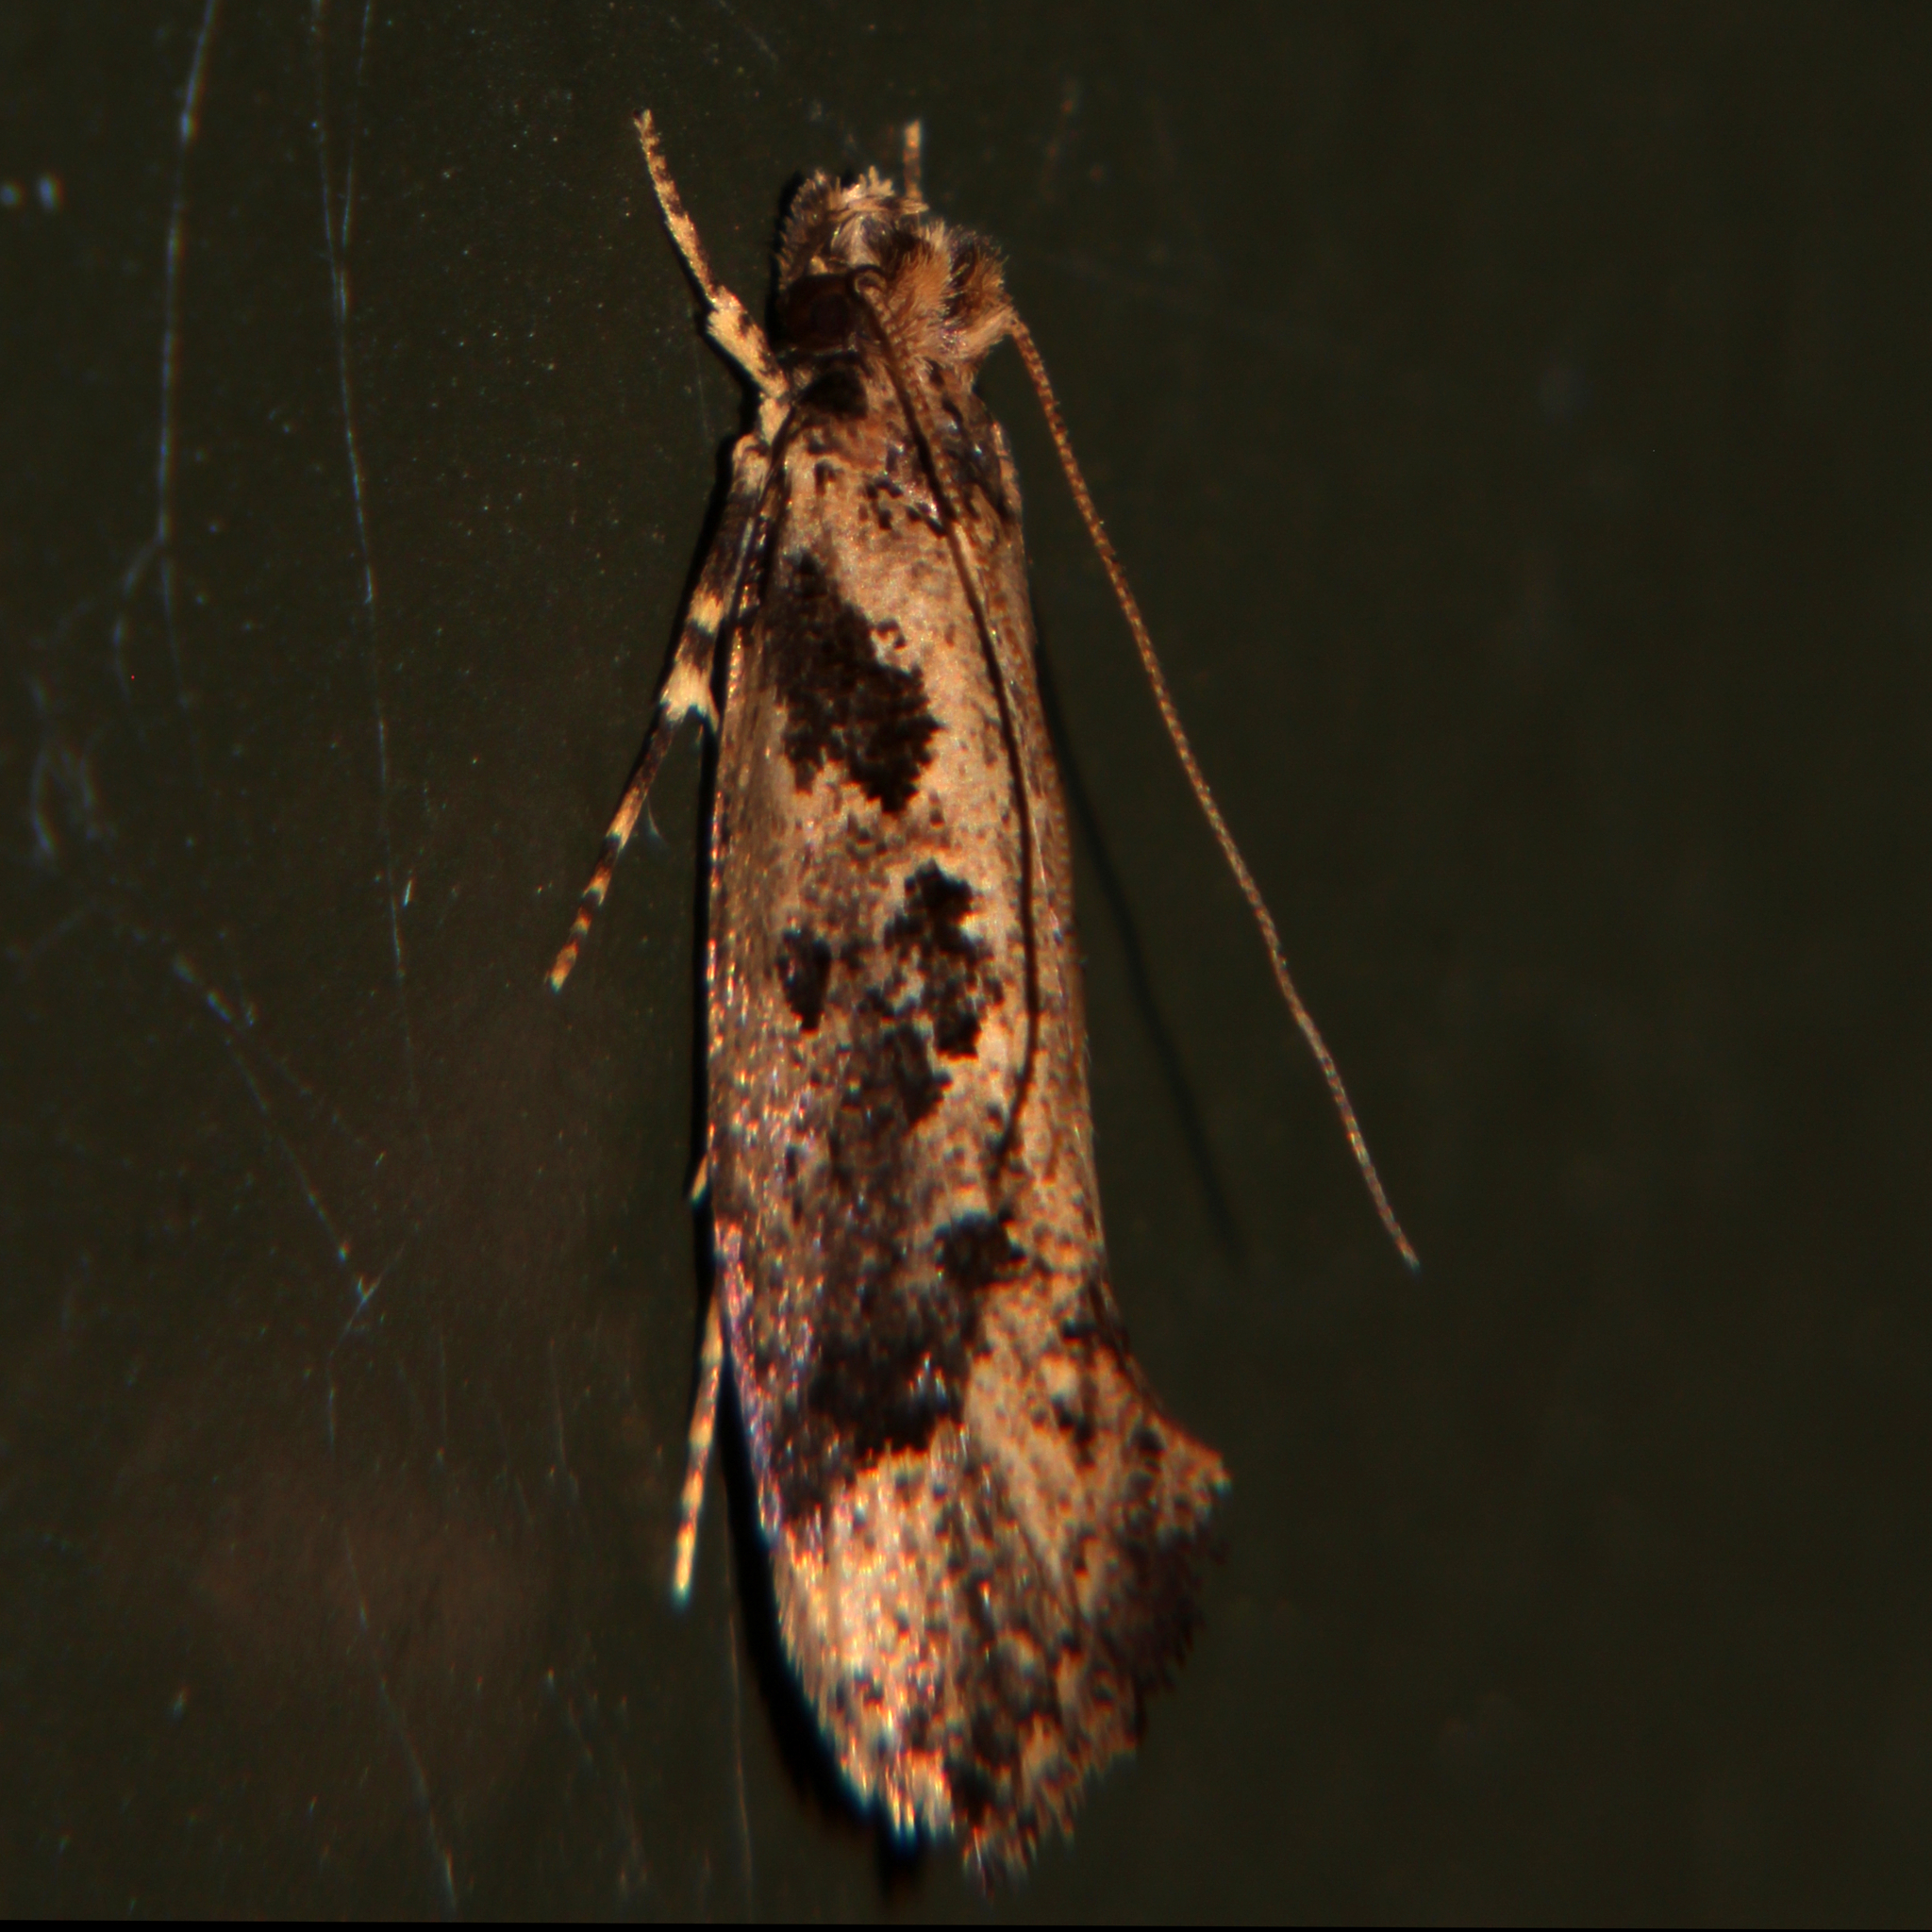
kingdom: Animalia
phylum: Arthropoda
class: Insecta
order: Lepidoptera
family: Tineidae
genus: Erechthias
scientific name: Erechthias capnitis
